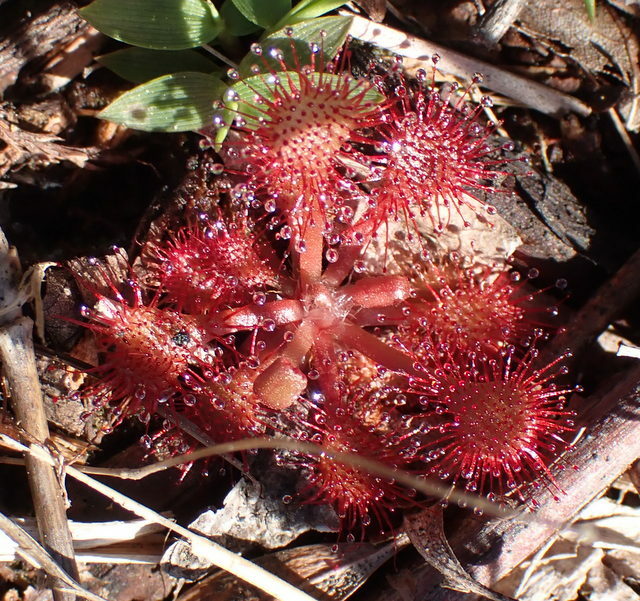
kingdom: Plantae
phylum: Tracheophyta
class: Magnoliopsida
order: Caryophyllales
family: Droseraceae
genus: Drosera
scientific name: Drosera capillaris
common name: Pink sundew
